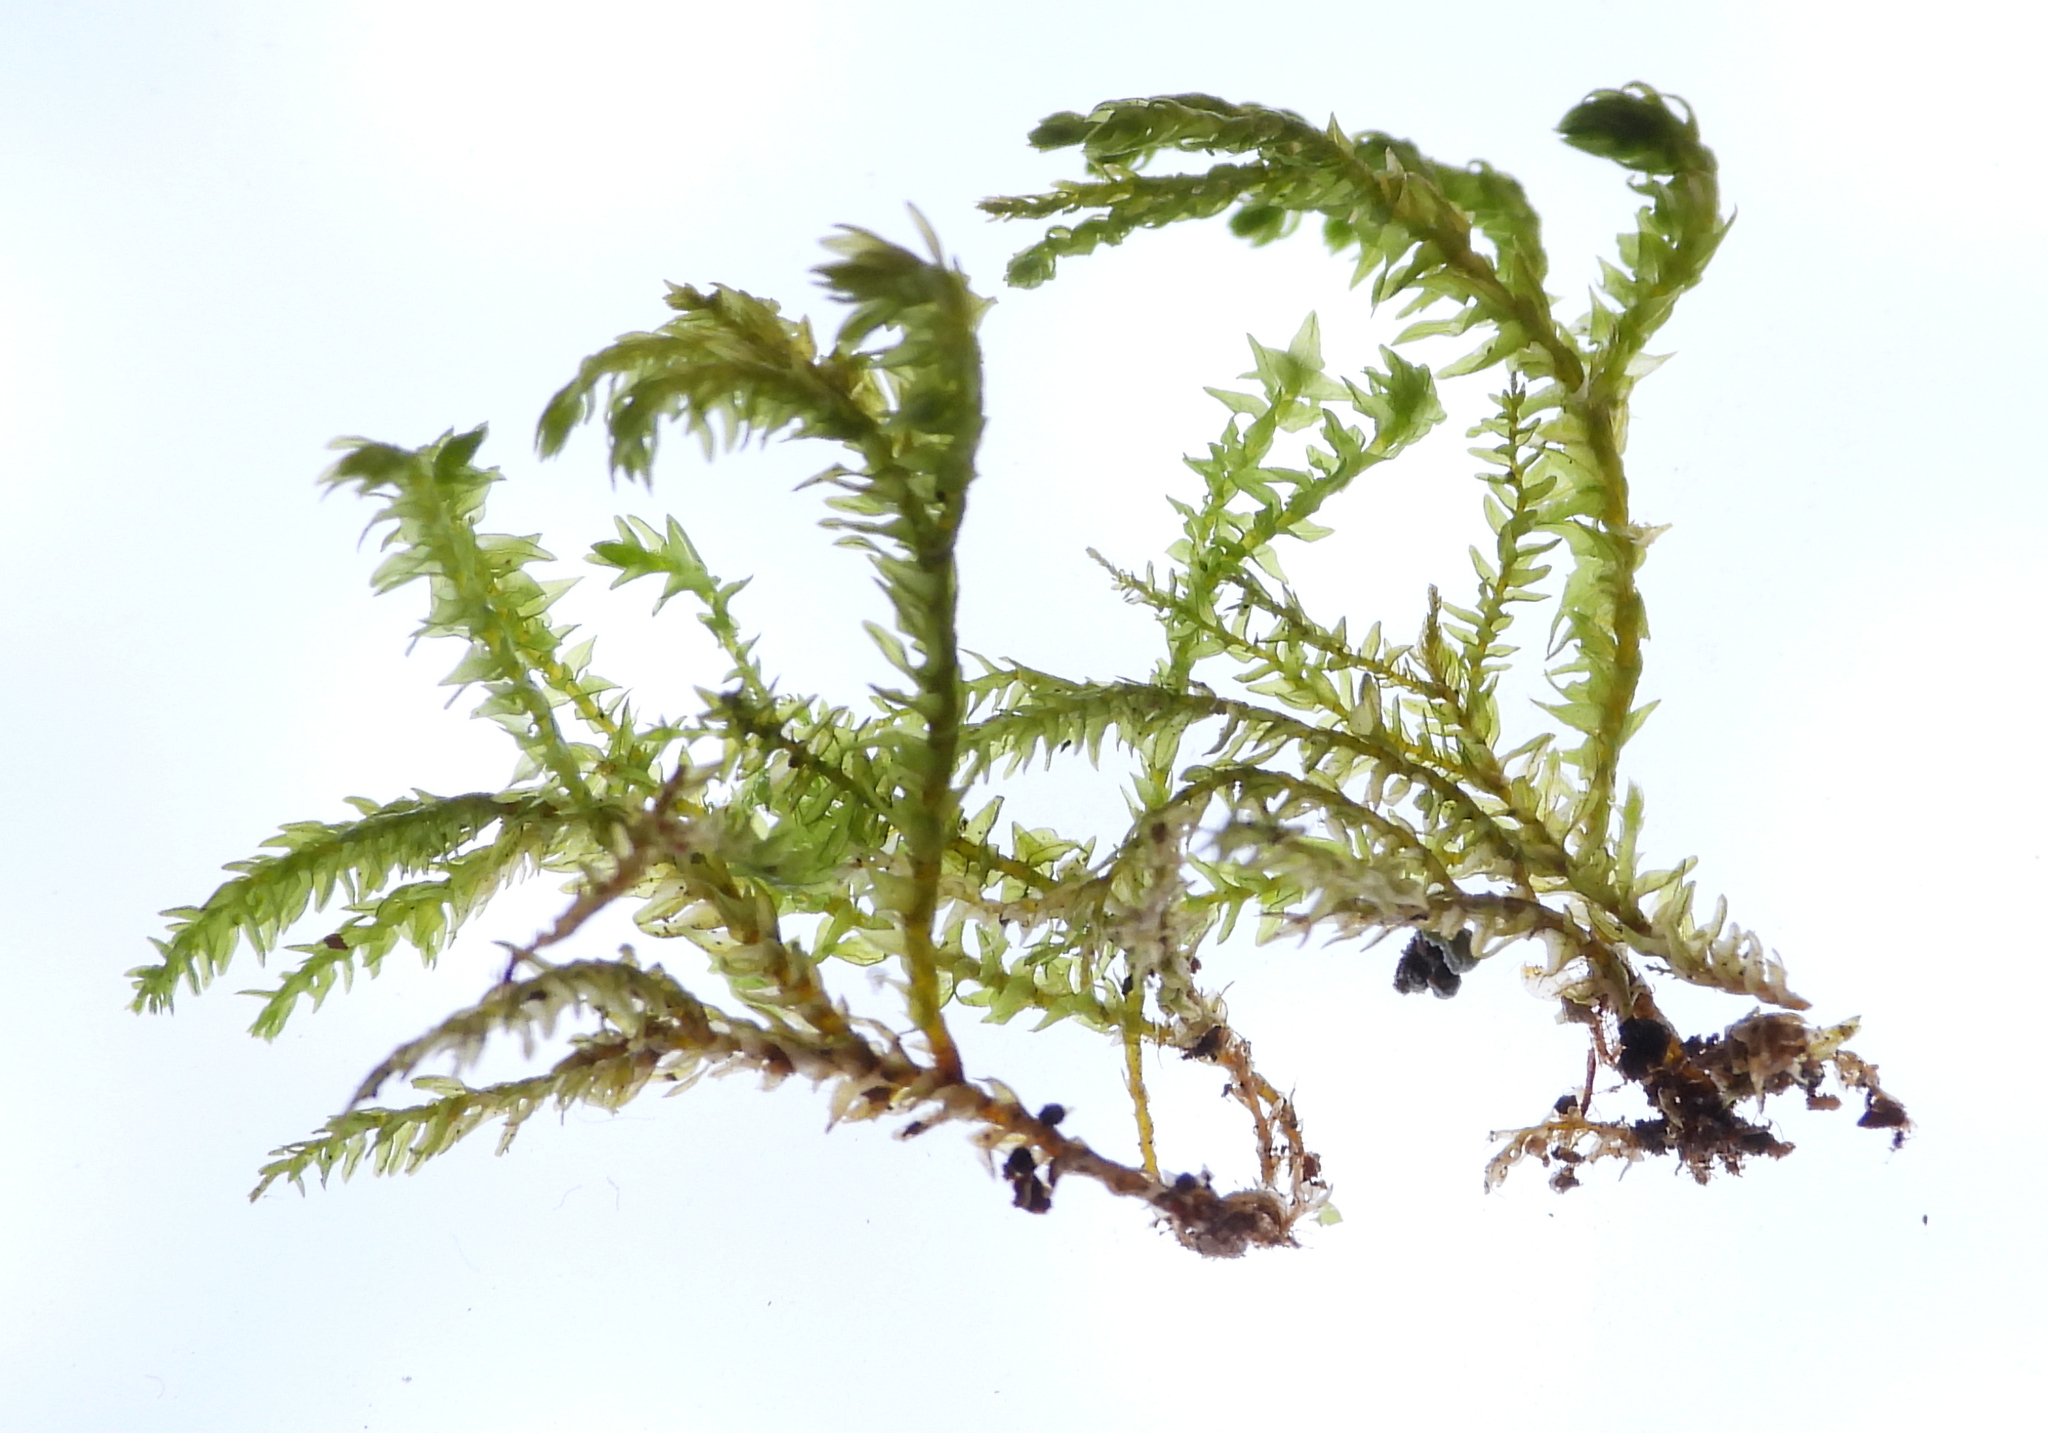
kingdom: Plantae
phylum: Bryophyta
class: Bryopsida
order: Hypnales
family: Neckeraceae
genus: Pseudanomodon
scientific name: Pseudanomodon attenuatus
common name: Tree-skirt moss
